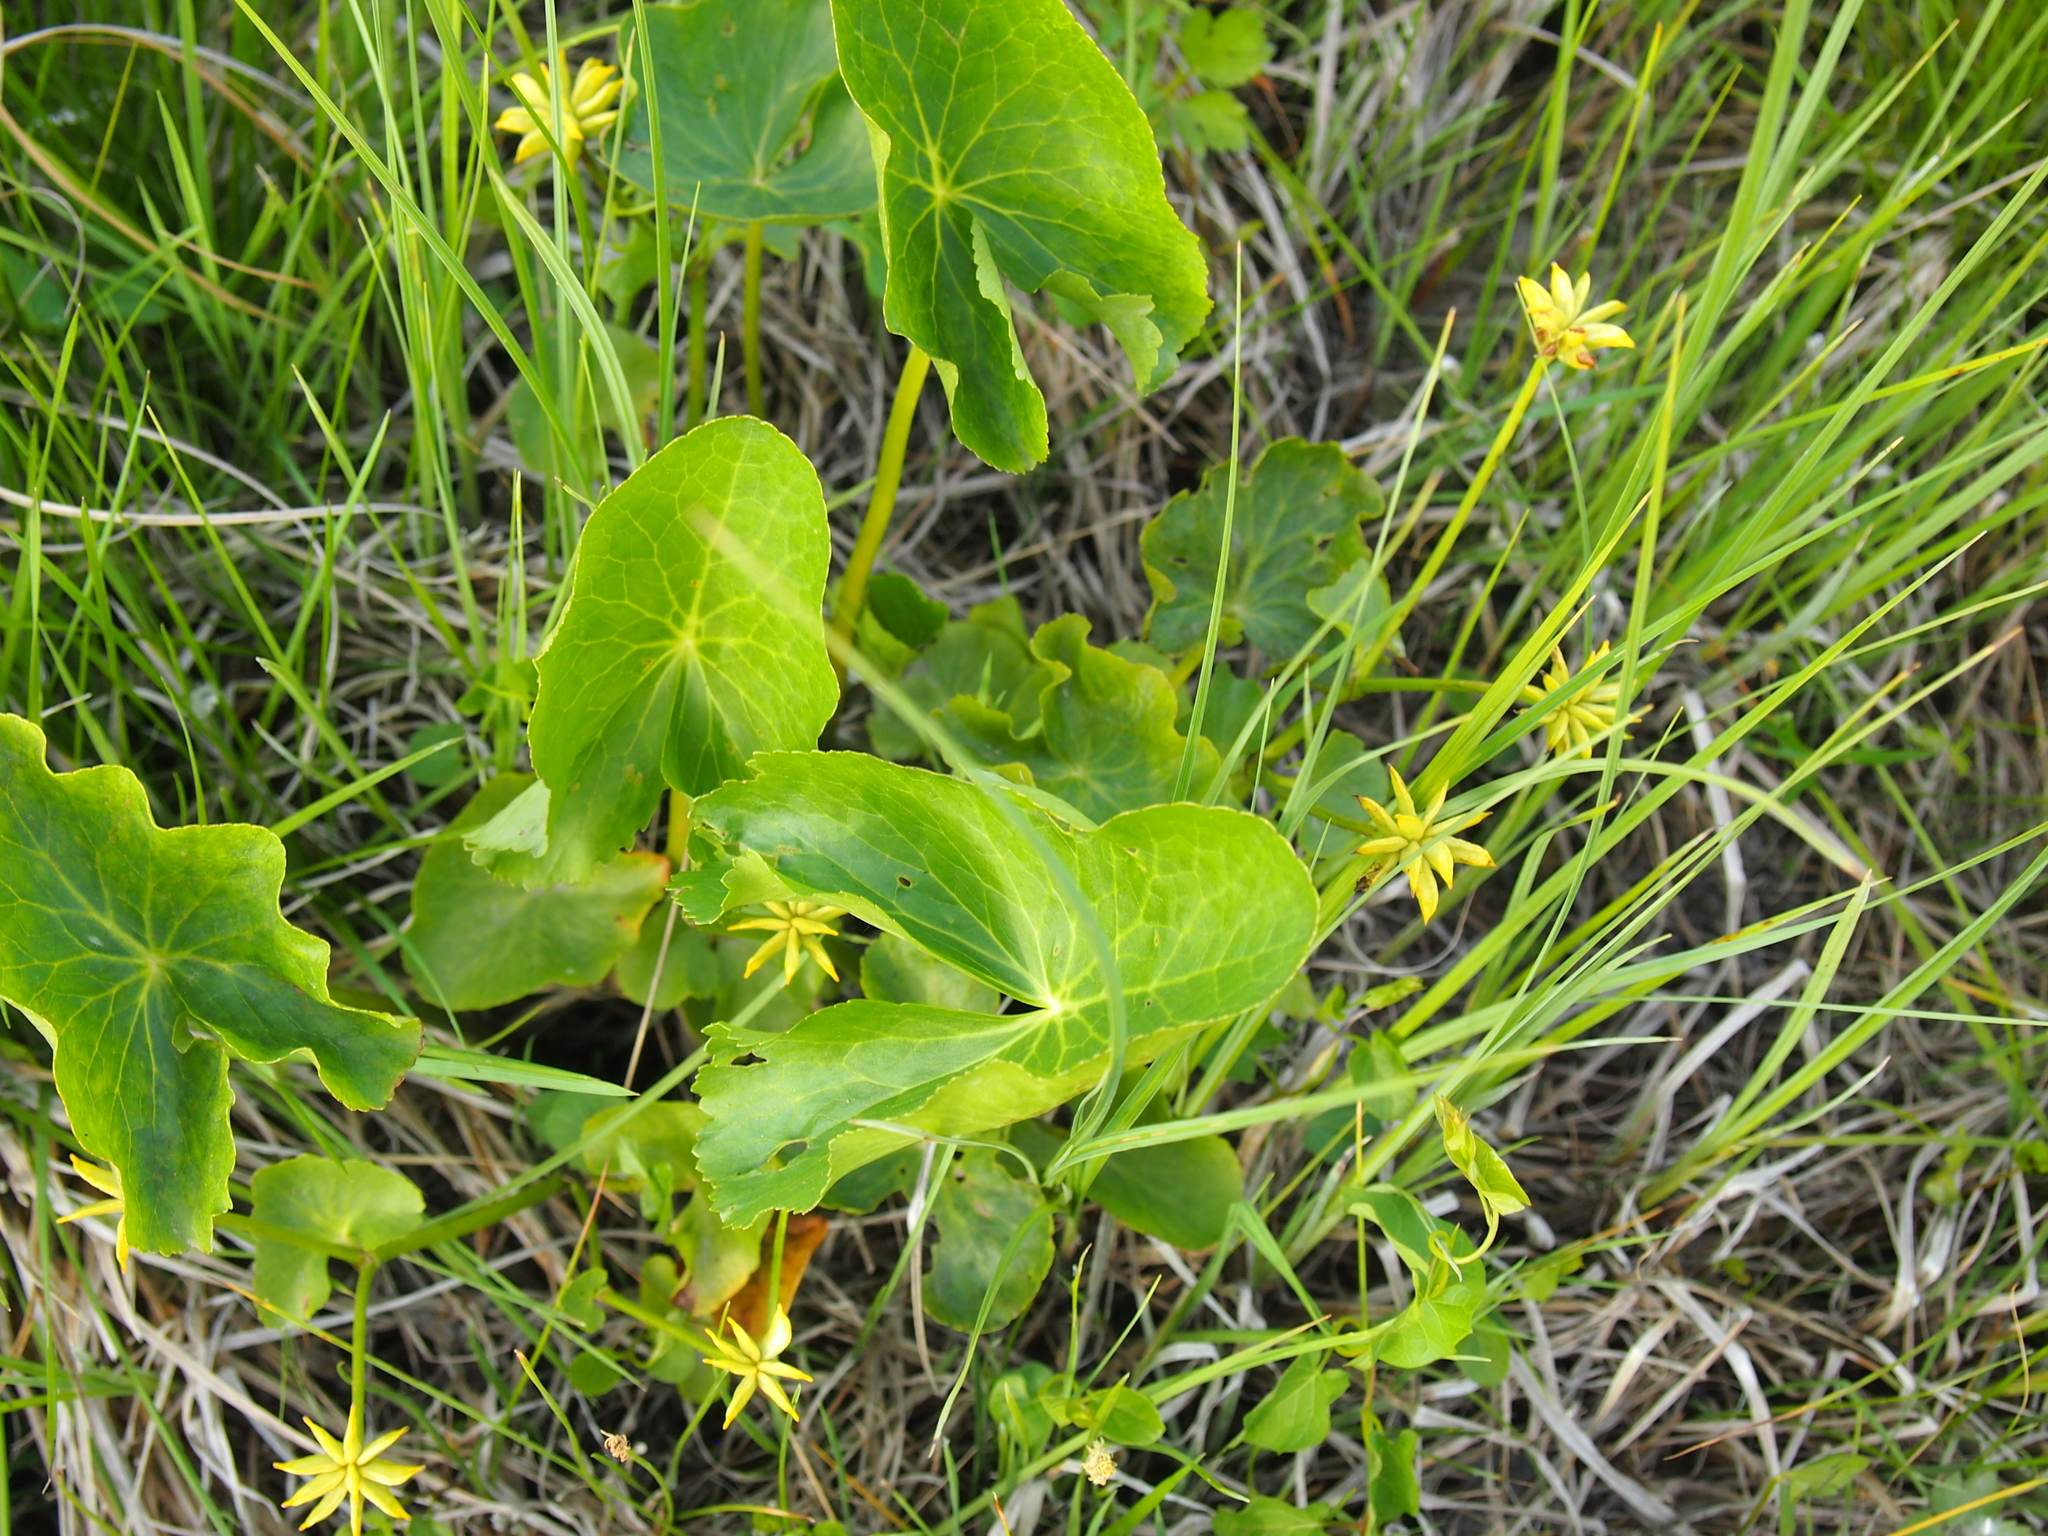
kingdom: Plantae
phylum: Tracheophyta
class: Magnoliopsida
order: Ranunculales
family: Ranunculaceae
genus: Caltha
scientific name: Caltha palustris
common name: Marsh marigold
